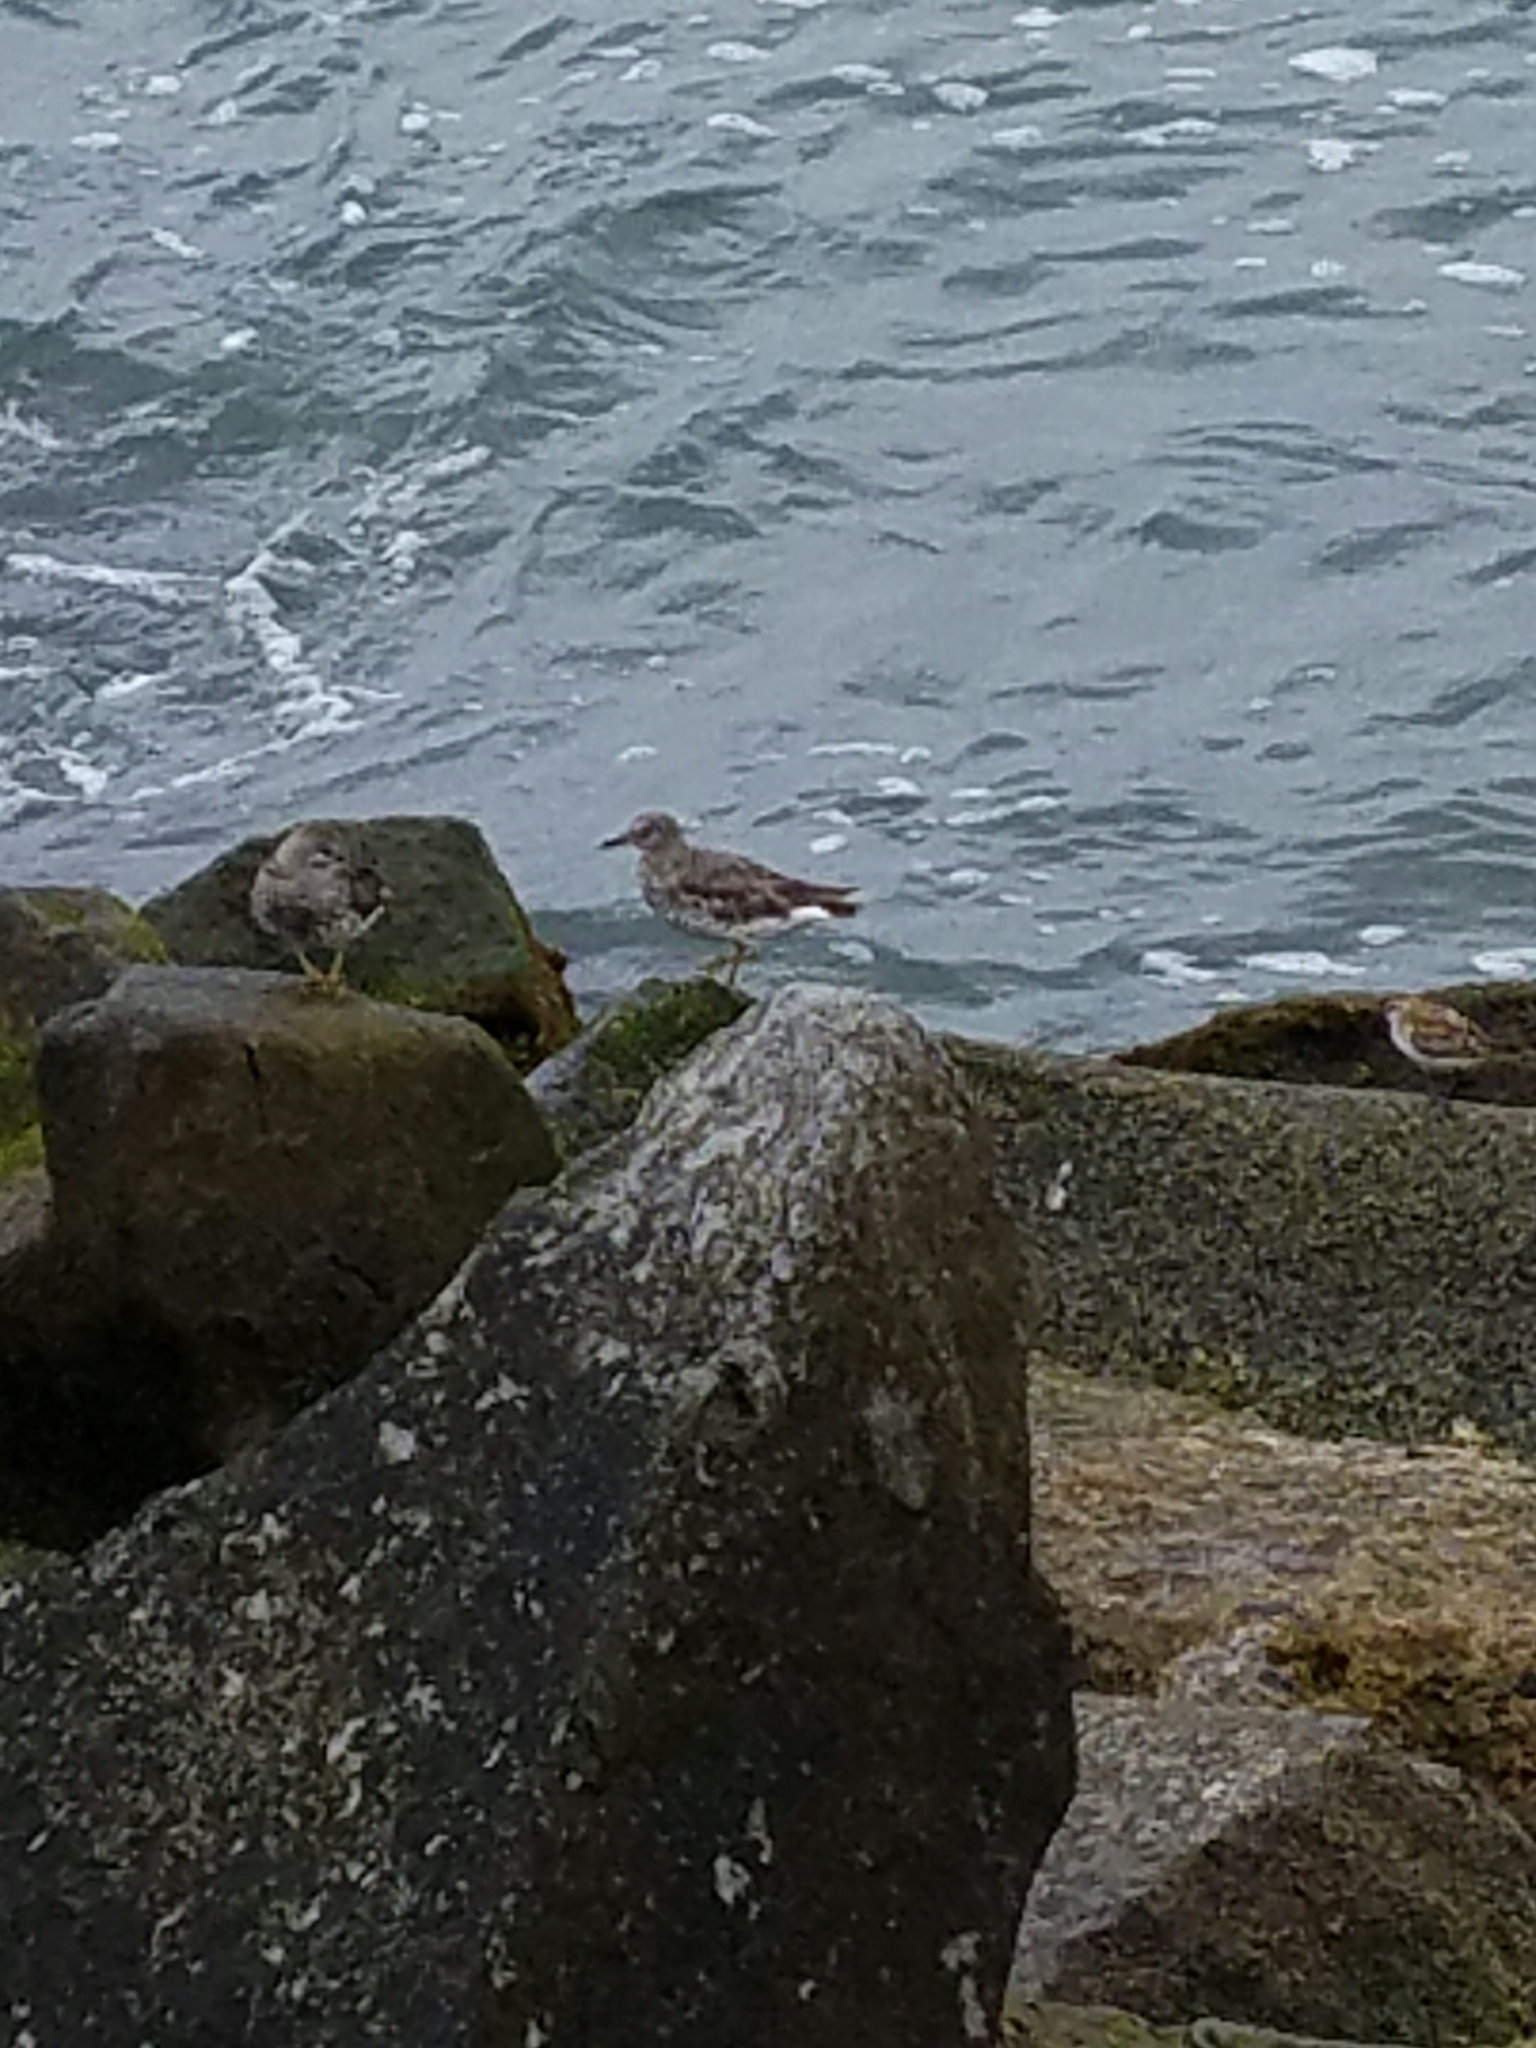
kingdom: Animalia
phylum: Chordata
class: Aves
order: Charadriiformes
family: Scolopacidae
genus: Calidris
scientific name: Calidris virgata
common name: Surfbird
